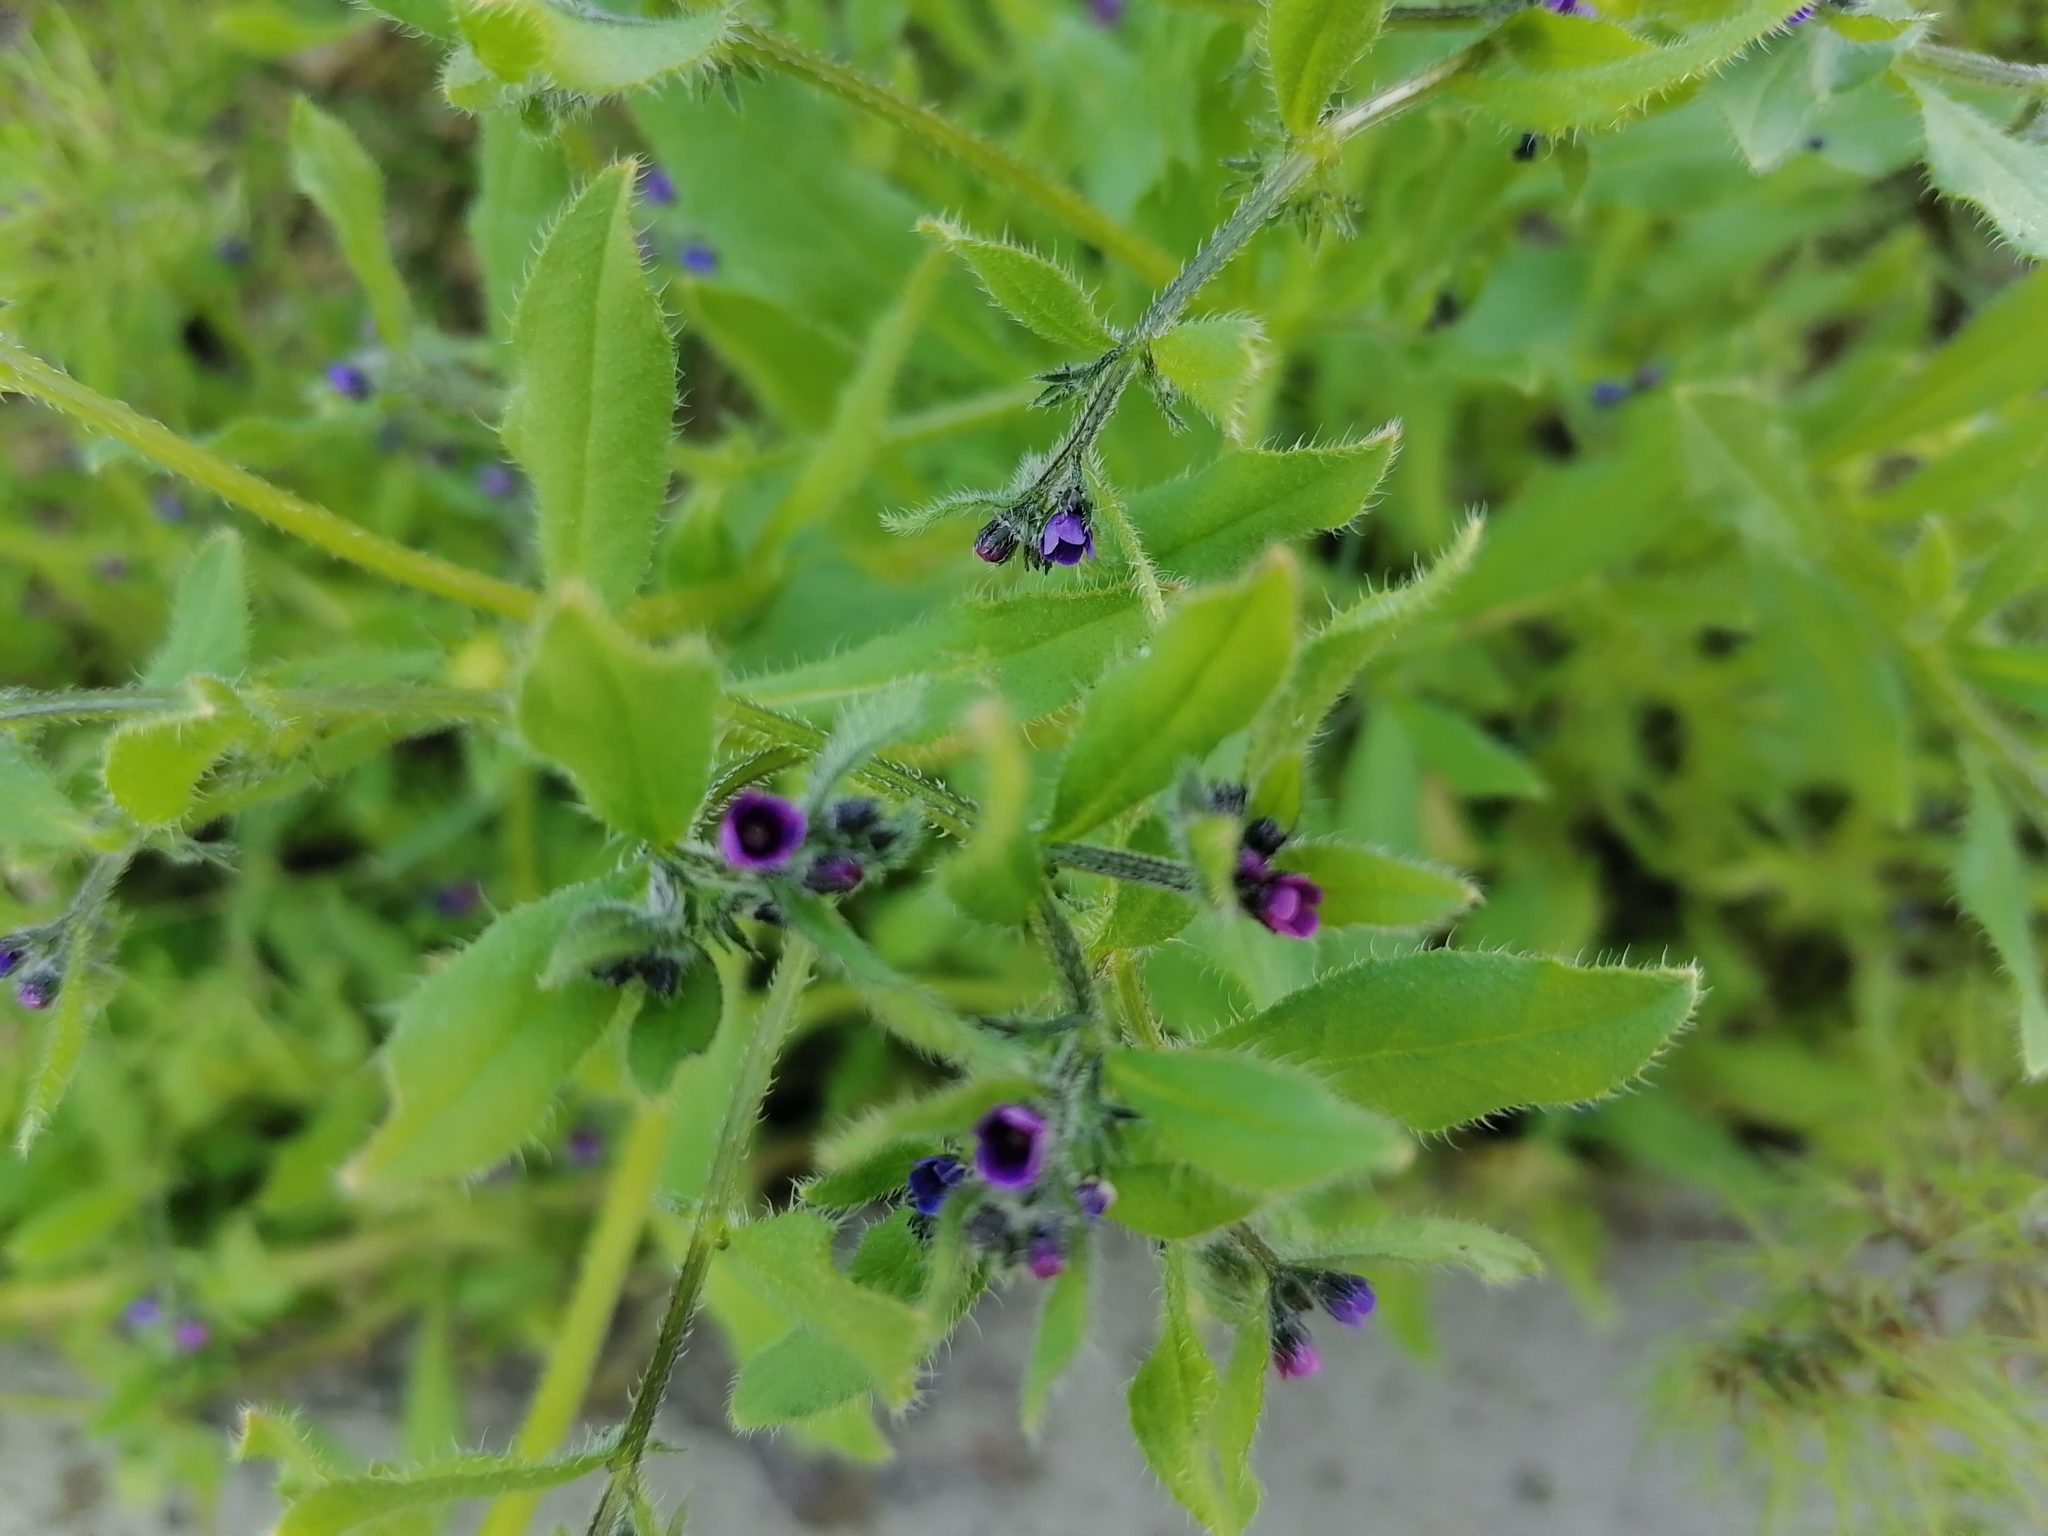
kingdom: Plantae
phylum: Tracheophyta
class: Magnoliopsida
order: Boraginales
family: Boraginaceae
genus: Asperugo
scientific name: Asperugo procumbens
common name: Madwort
